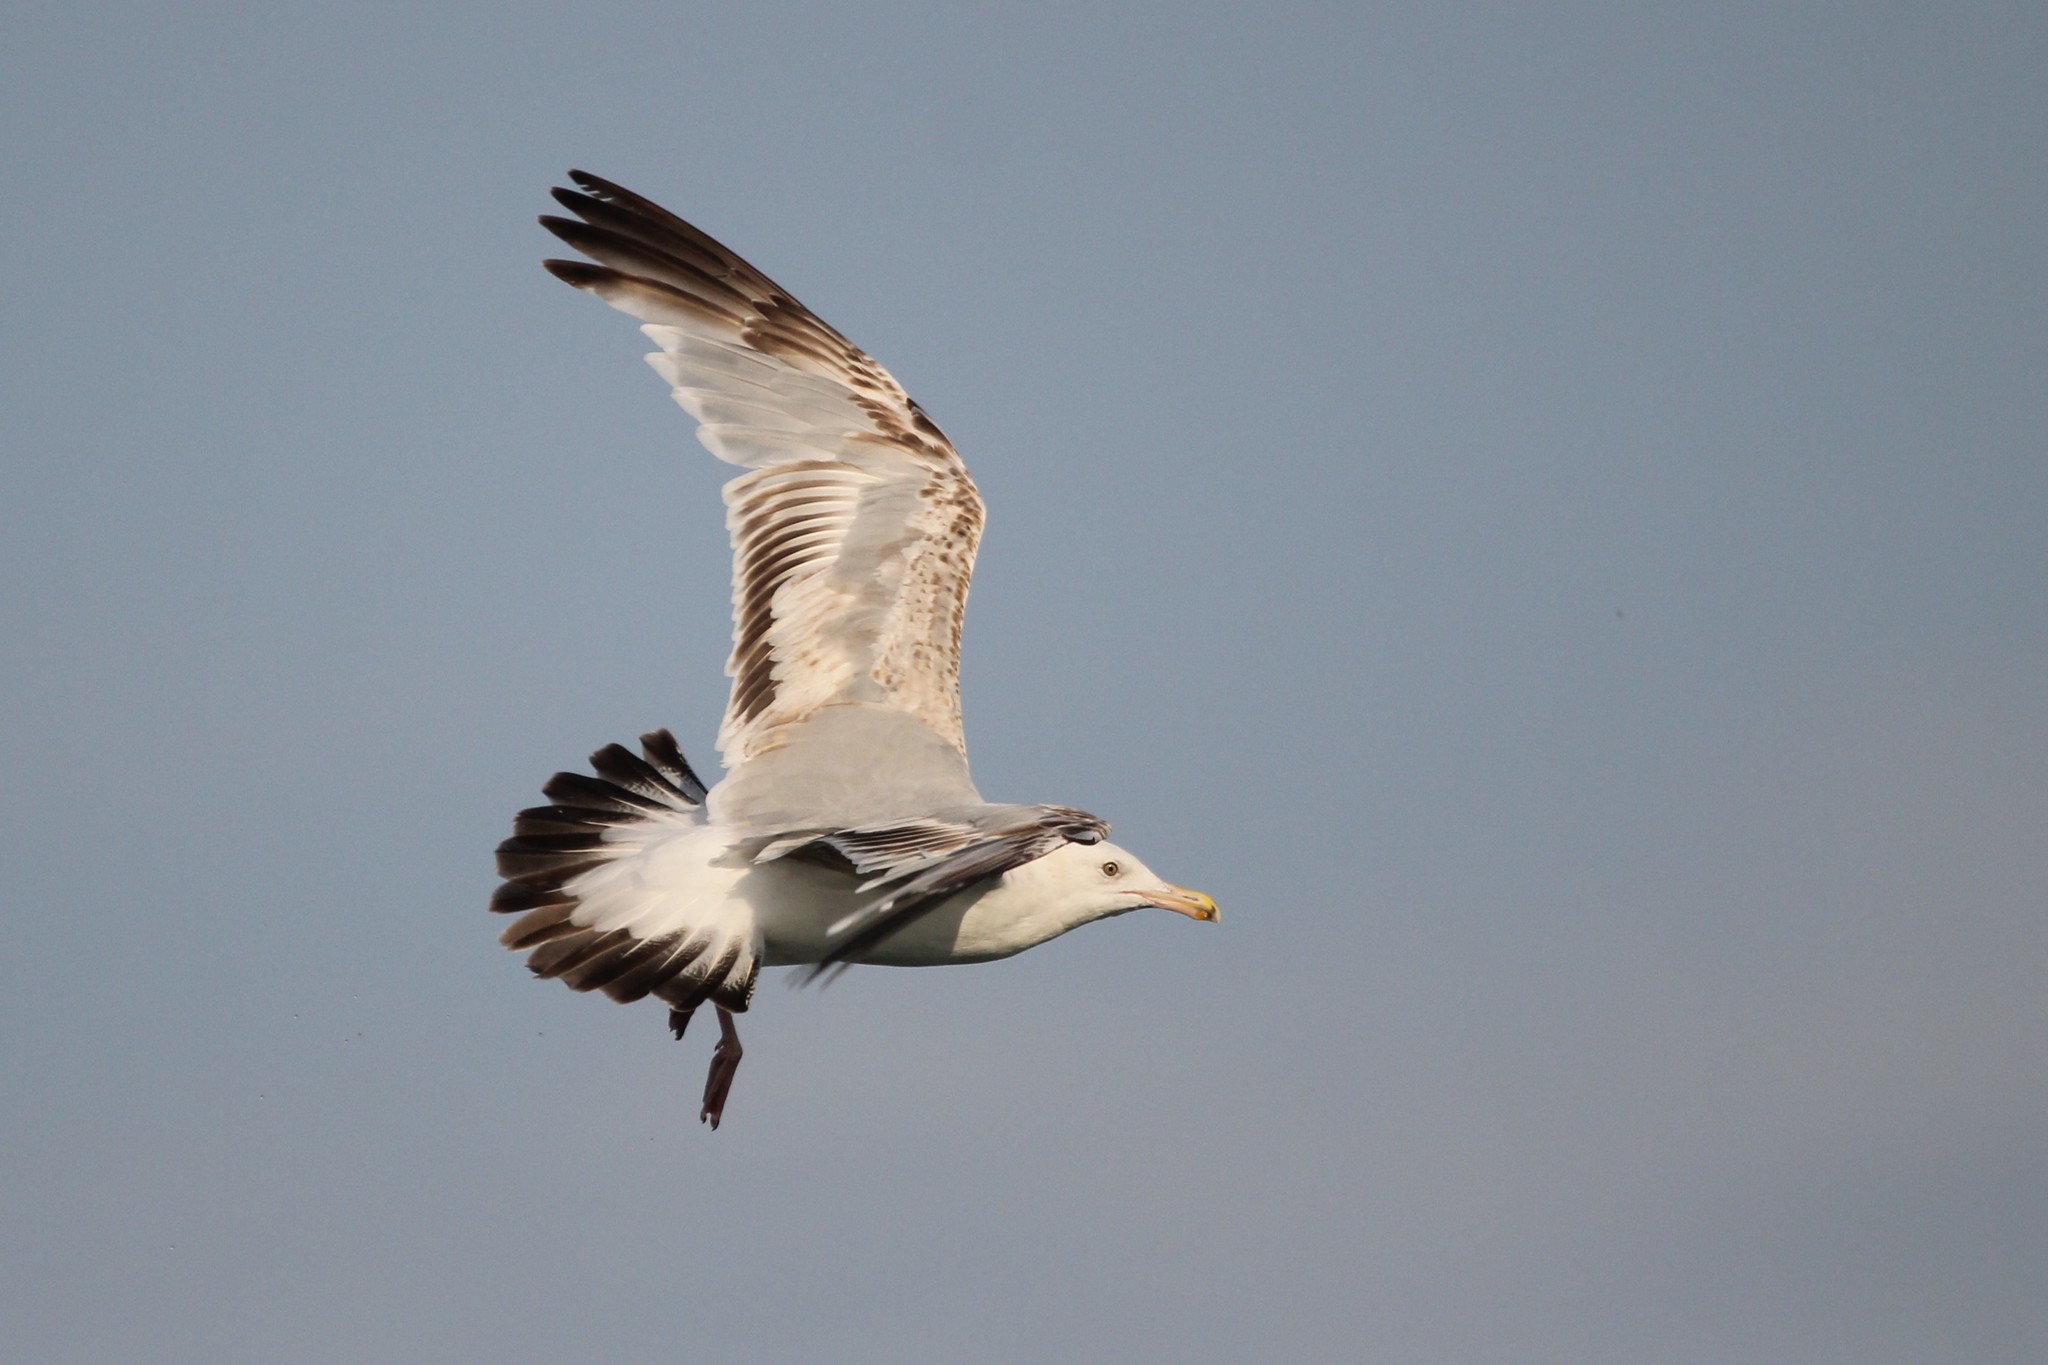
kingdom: Animalia
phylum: Chordata
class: Aves
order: Charadriiformes
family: Laridae
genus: Larus
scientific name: Larus argentatus
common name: Herring gull
